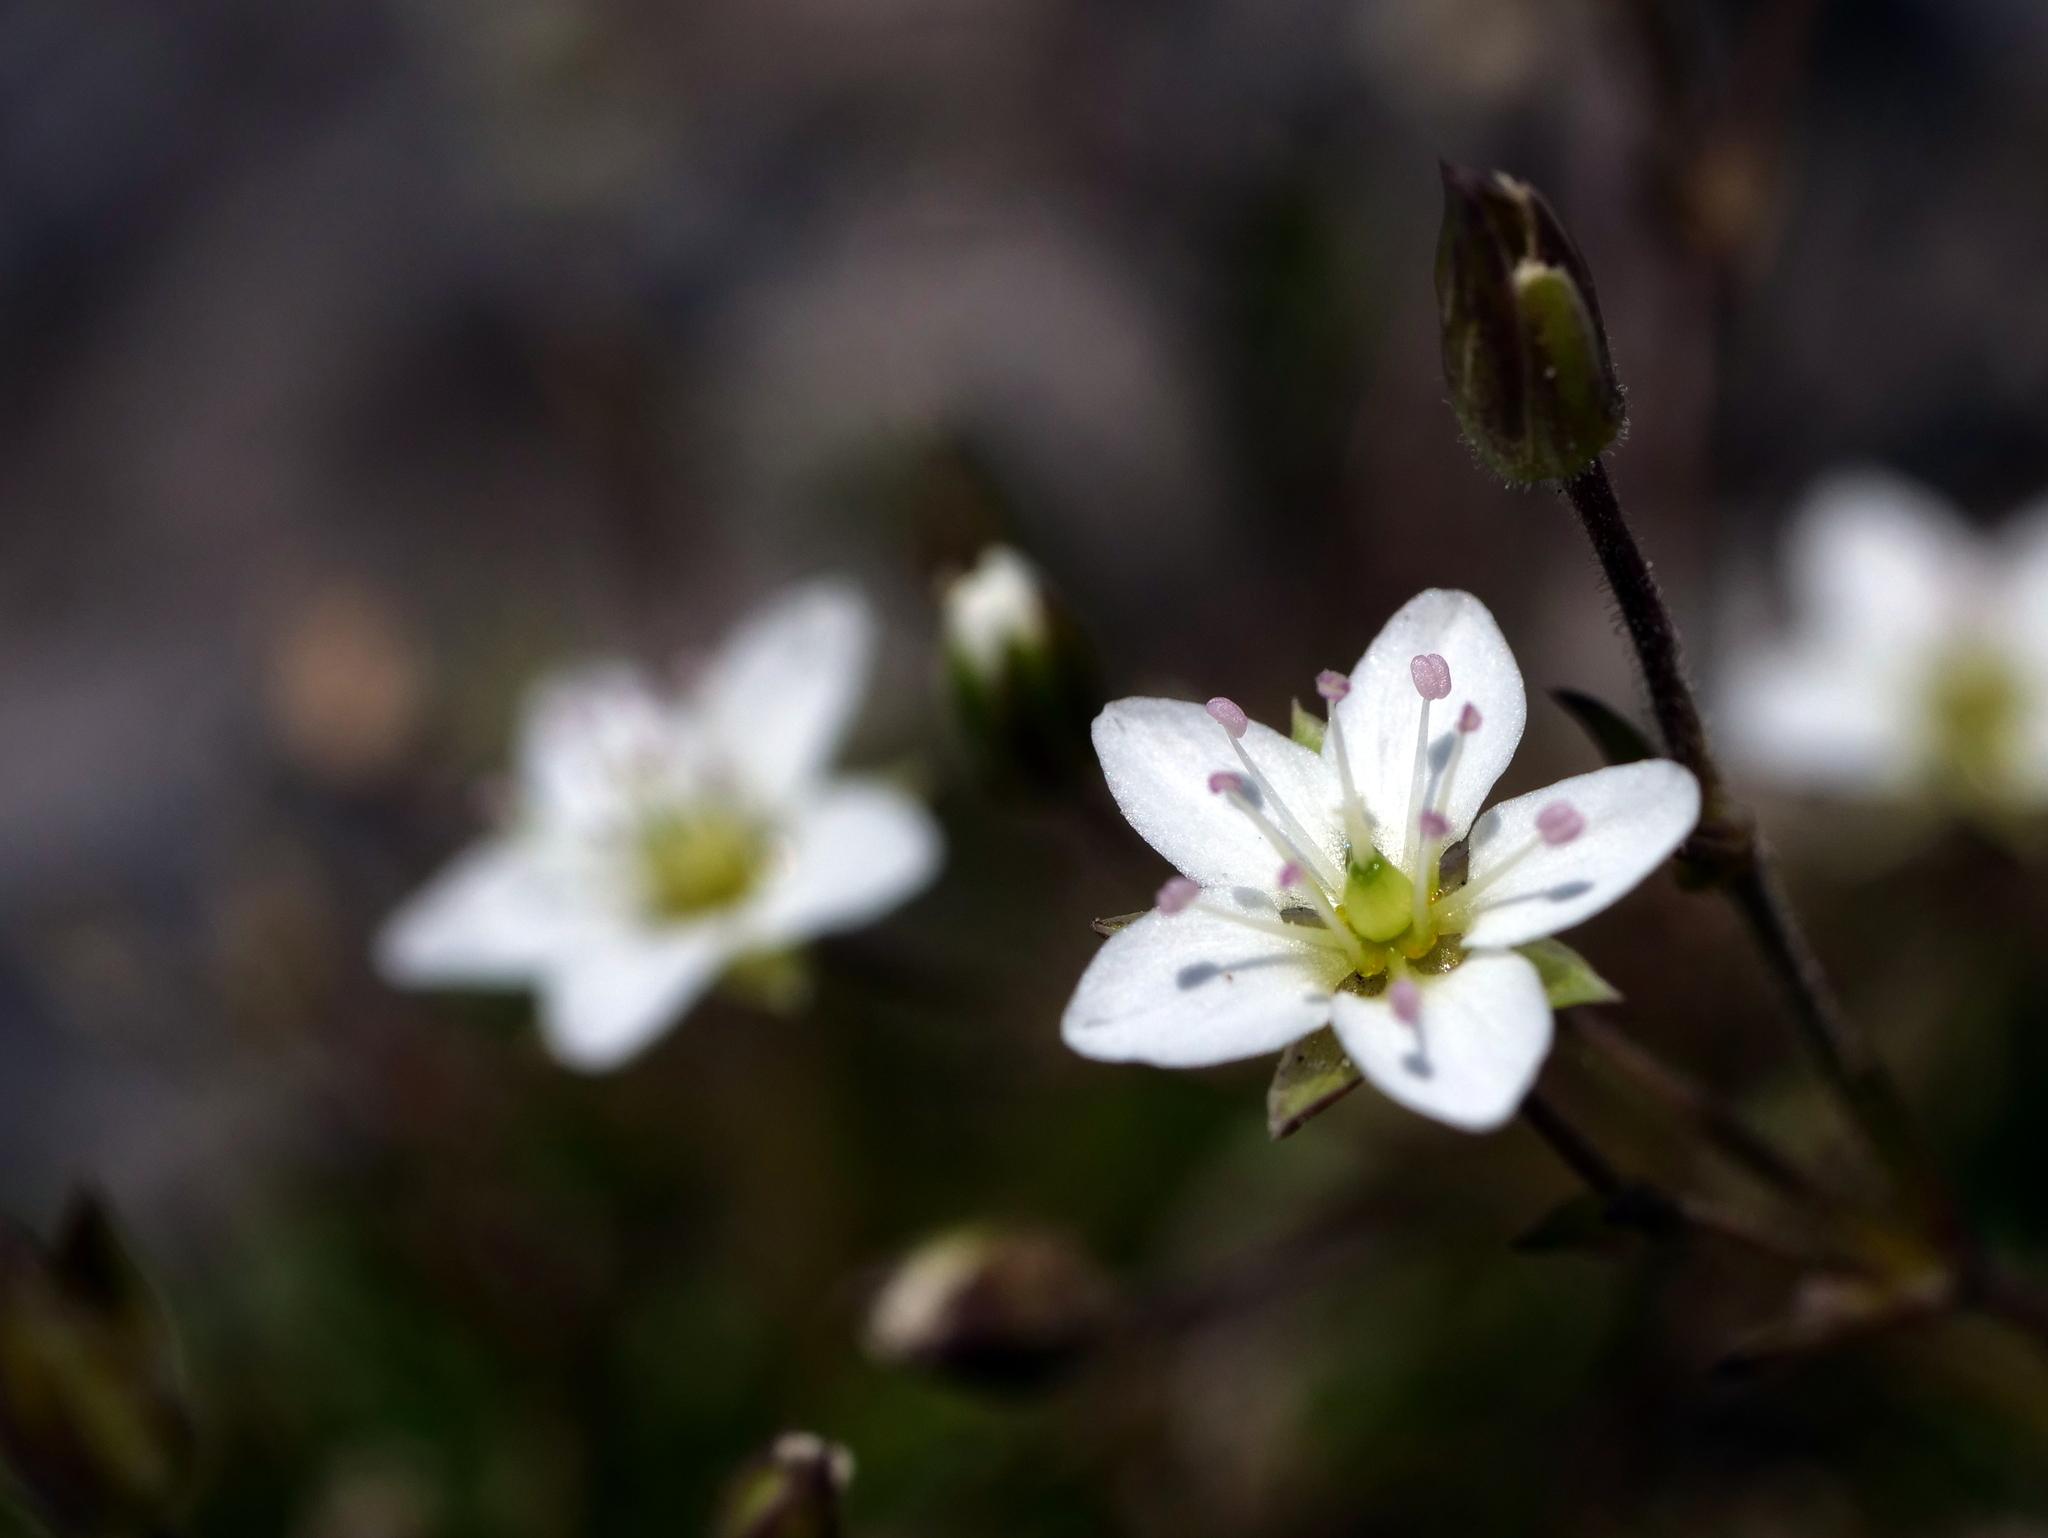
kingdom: Plantae
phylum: Tracheophyta
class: Magnoliopsida
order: Caryophyllales
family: Caryophyllaceae
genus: Sabulina
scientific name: Sabulina verna
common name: Spring sandwort
